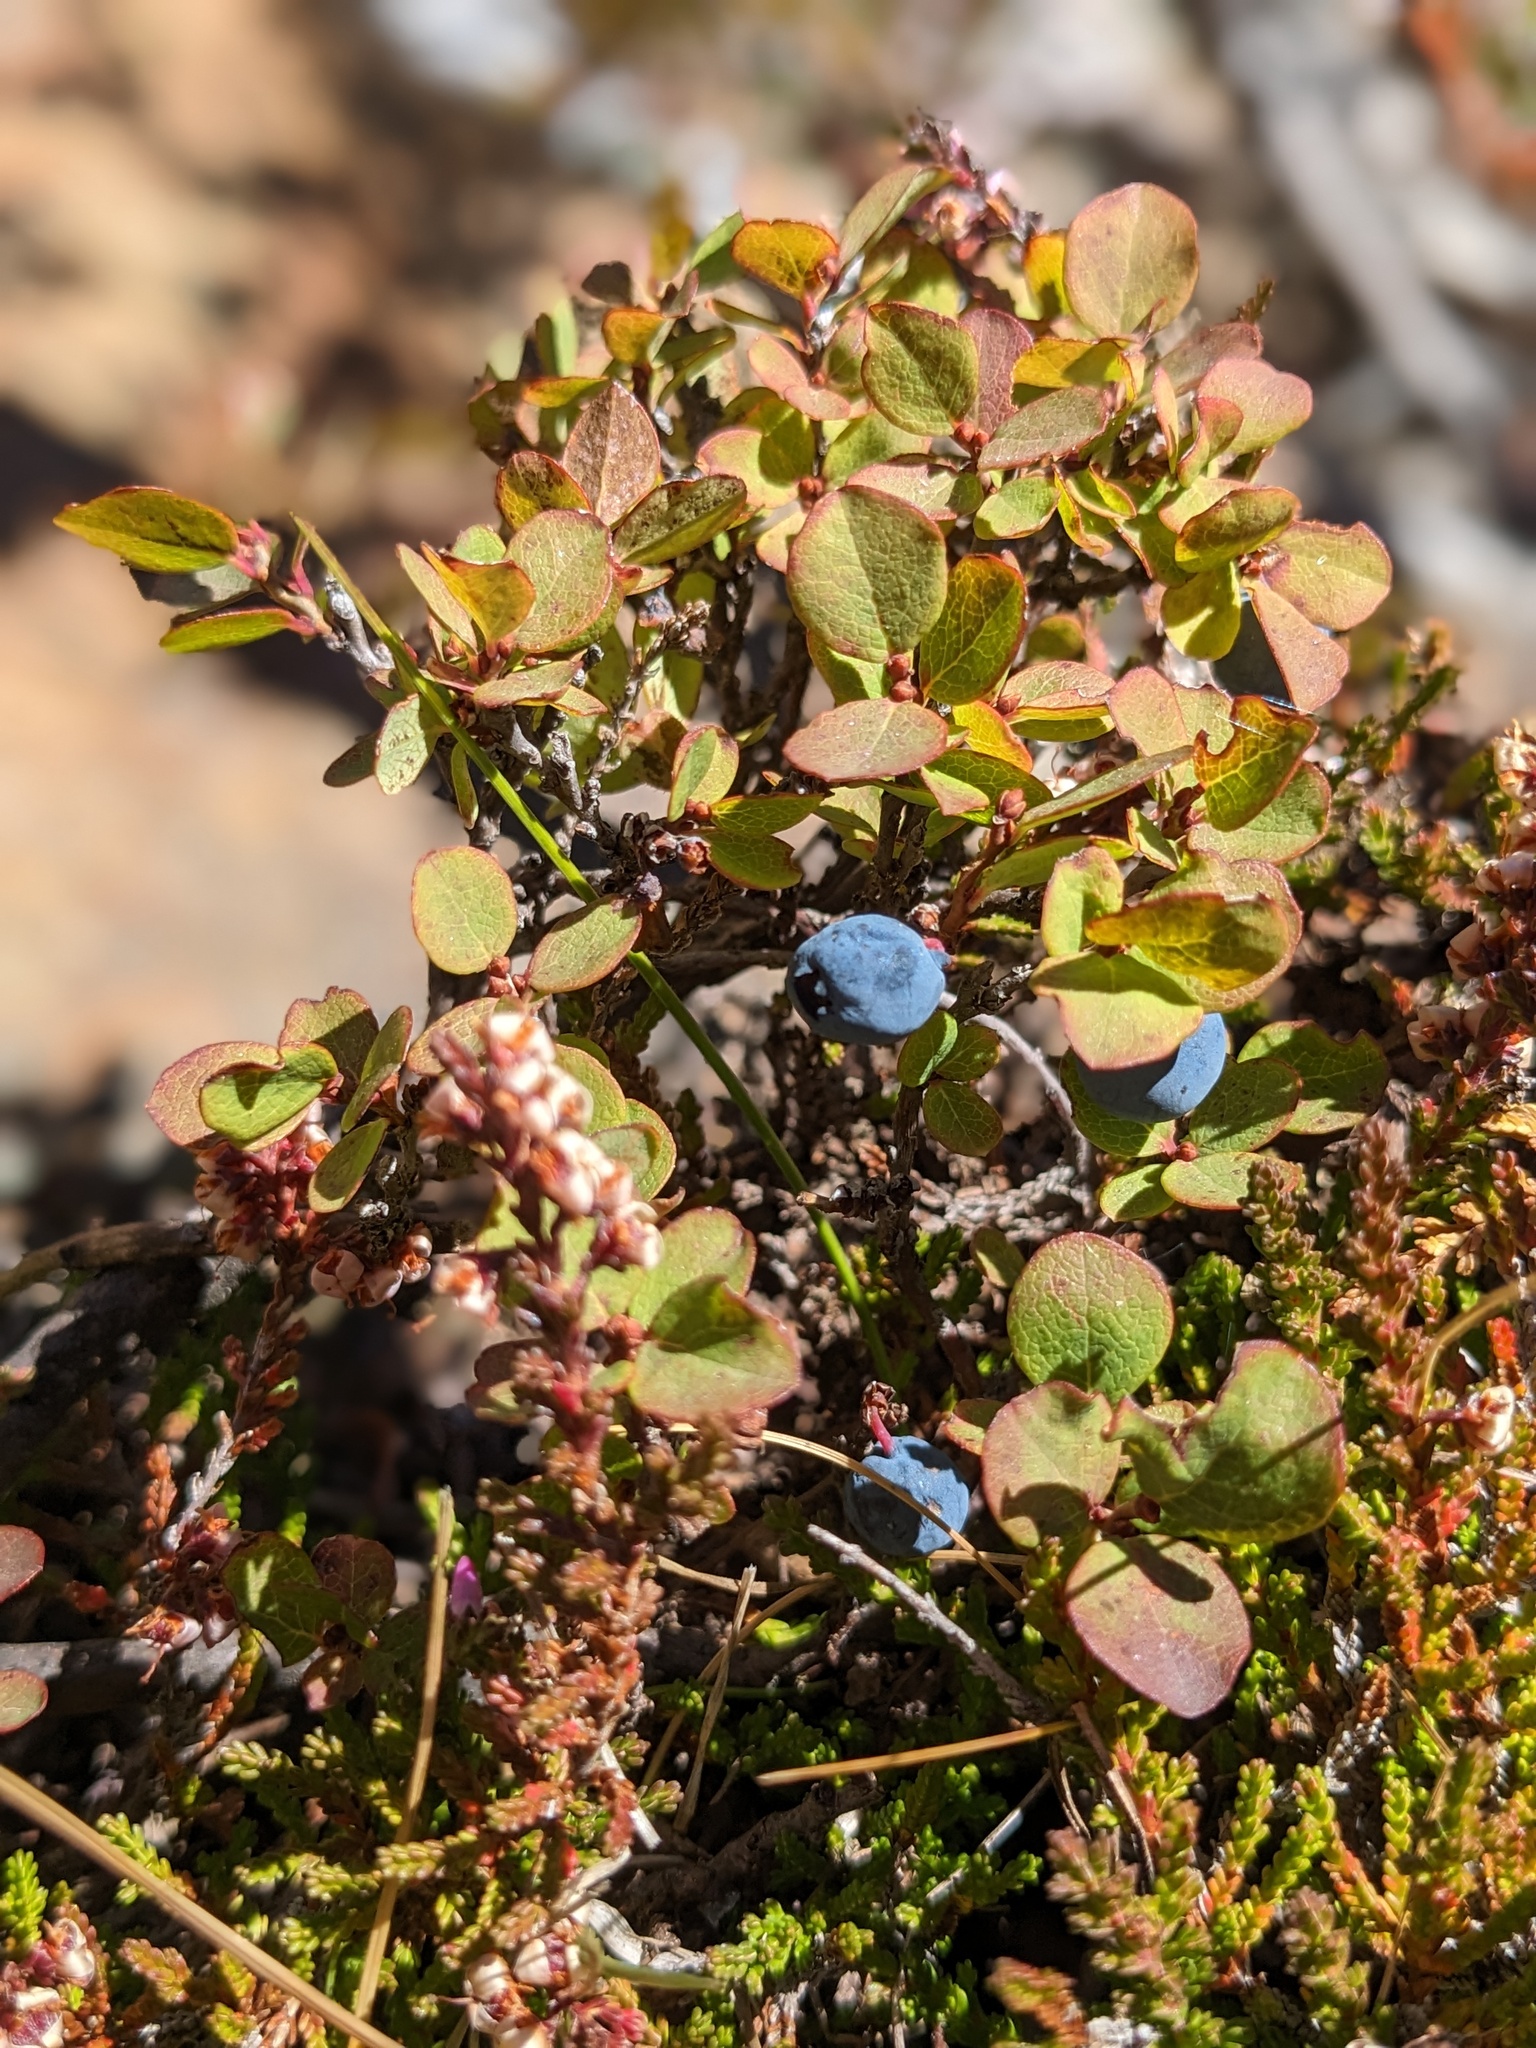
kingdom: Plantae
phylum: Tracheophyta
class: Magnoliopsida
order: Ericales
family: Ericaceae
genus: Vaccinium
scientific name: Vaccinium uliginosum
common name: Bog bilberry
